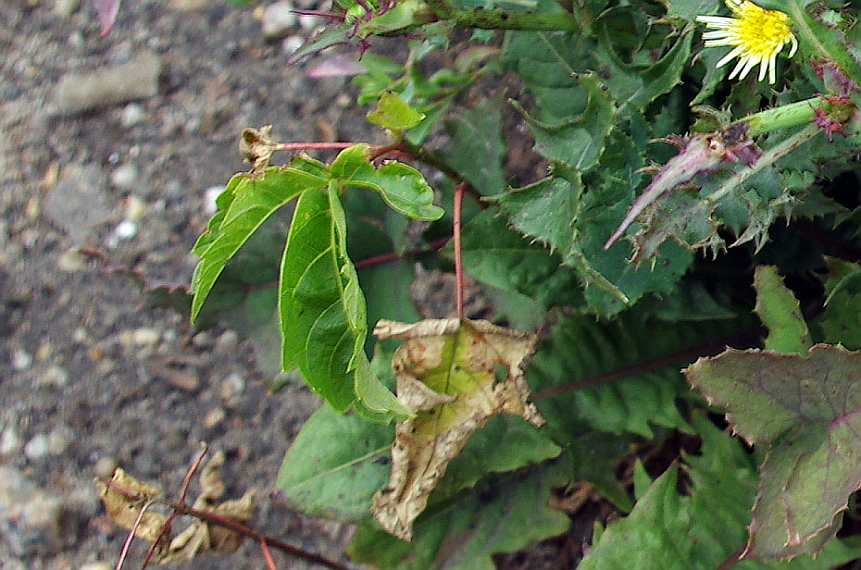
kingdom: Plantae
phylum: Tracheophyta
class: Magnoliopsida
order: Sapindales
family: Sapindaceae
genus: Acer
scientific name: Acer negundo
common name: Ashleaf maple
